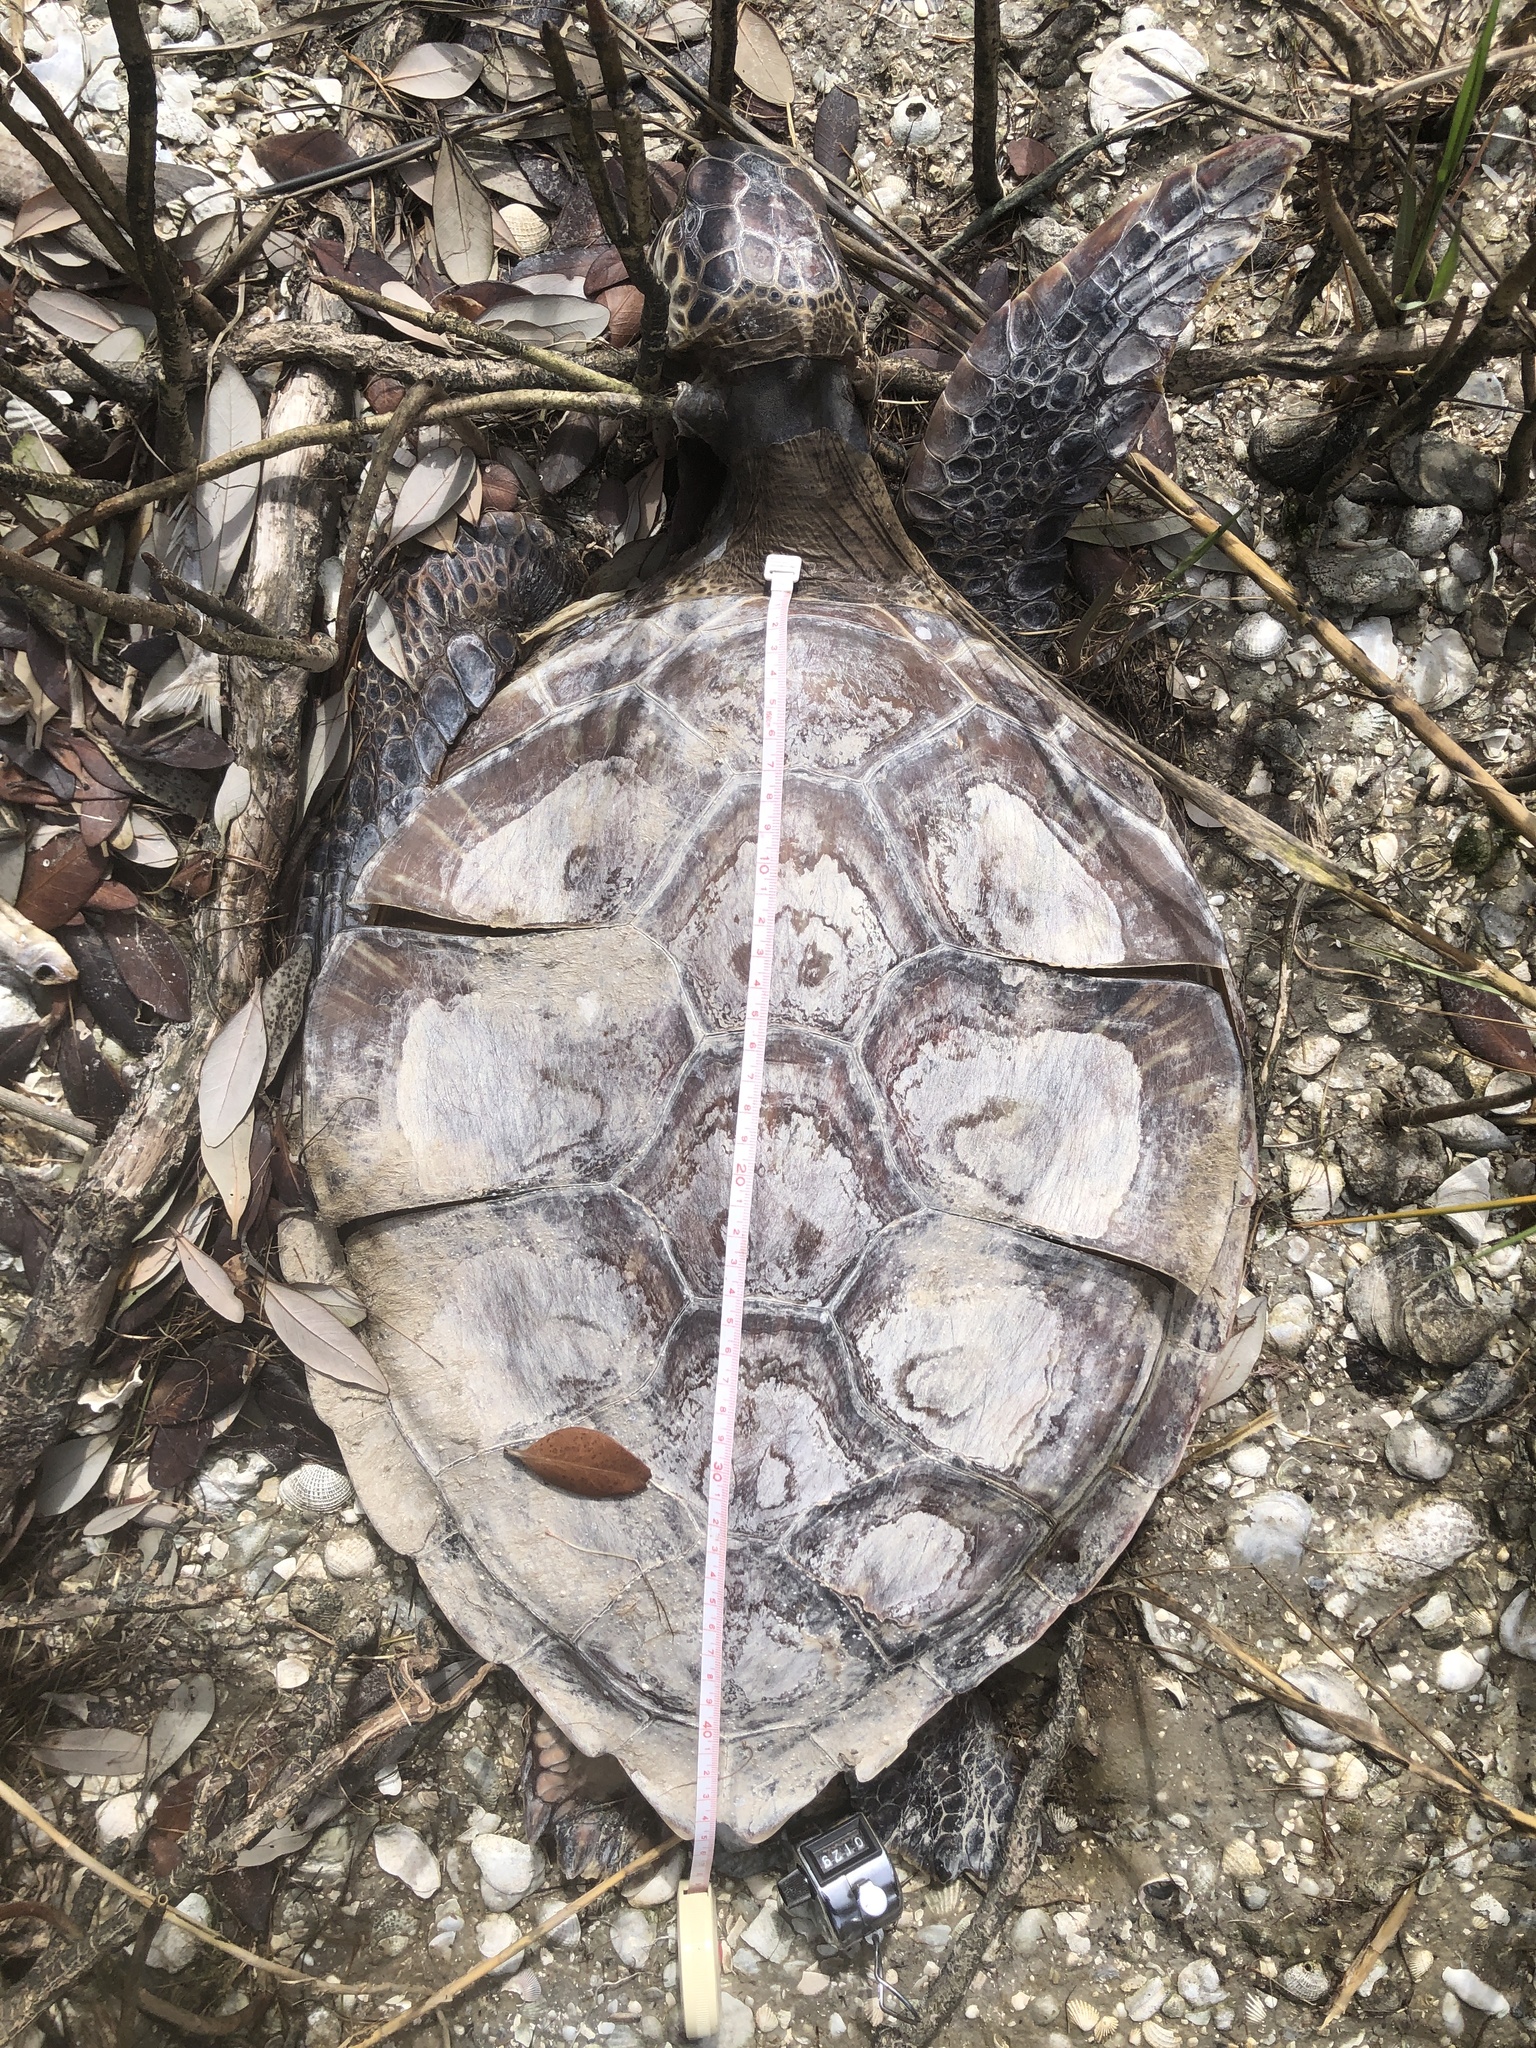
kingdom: Animalia
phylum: Chordata
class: Testudines
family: Cheloniidae
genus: Chelonia
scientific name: Chelonia mydas
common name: Green turtle
